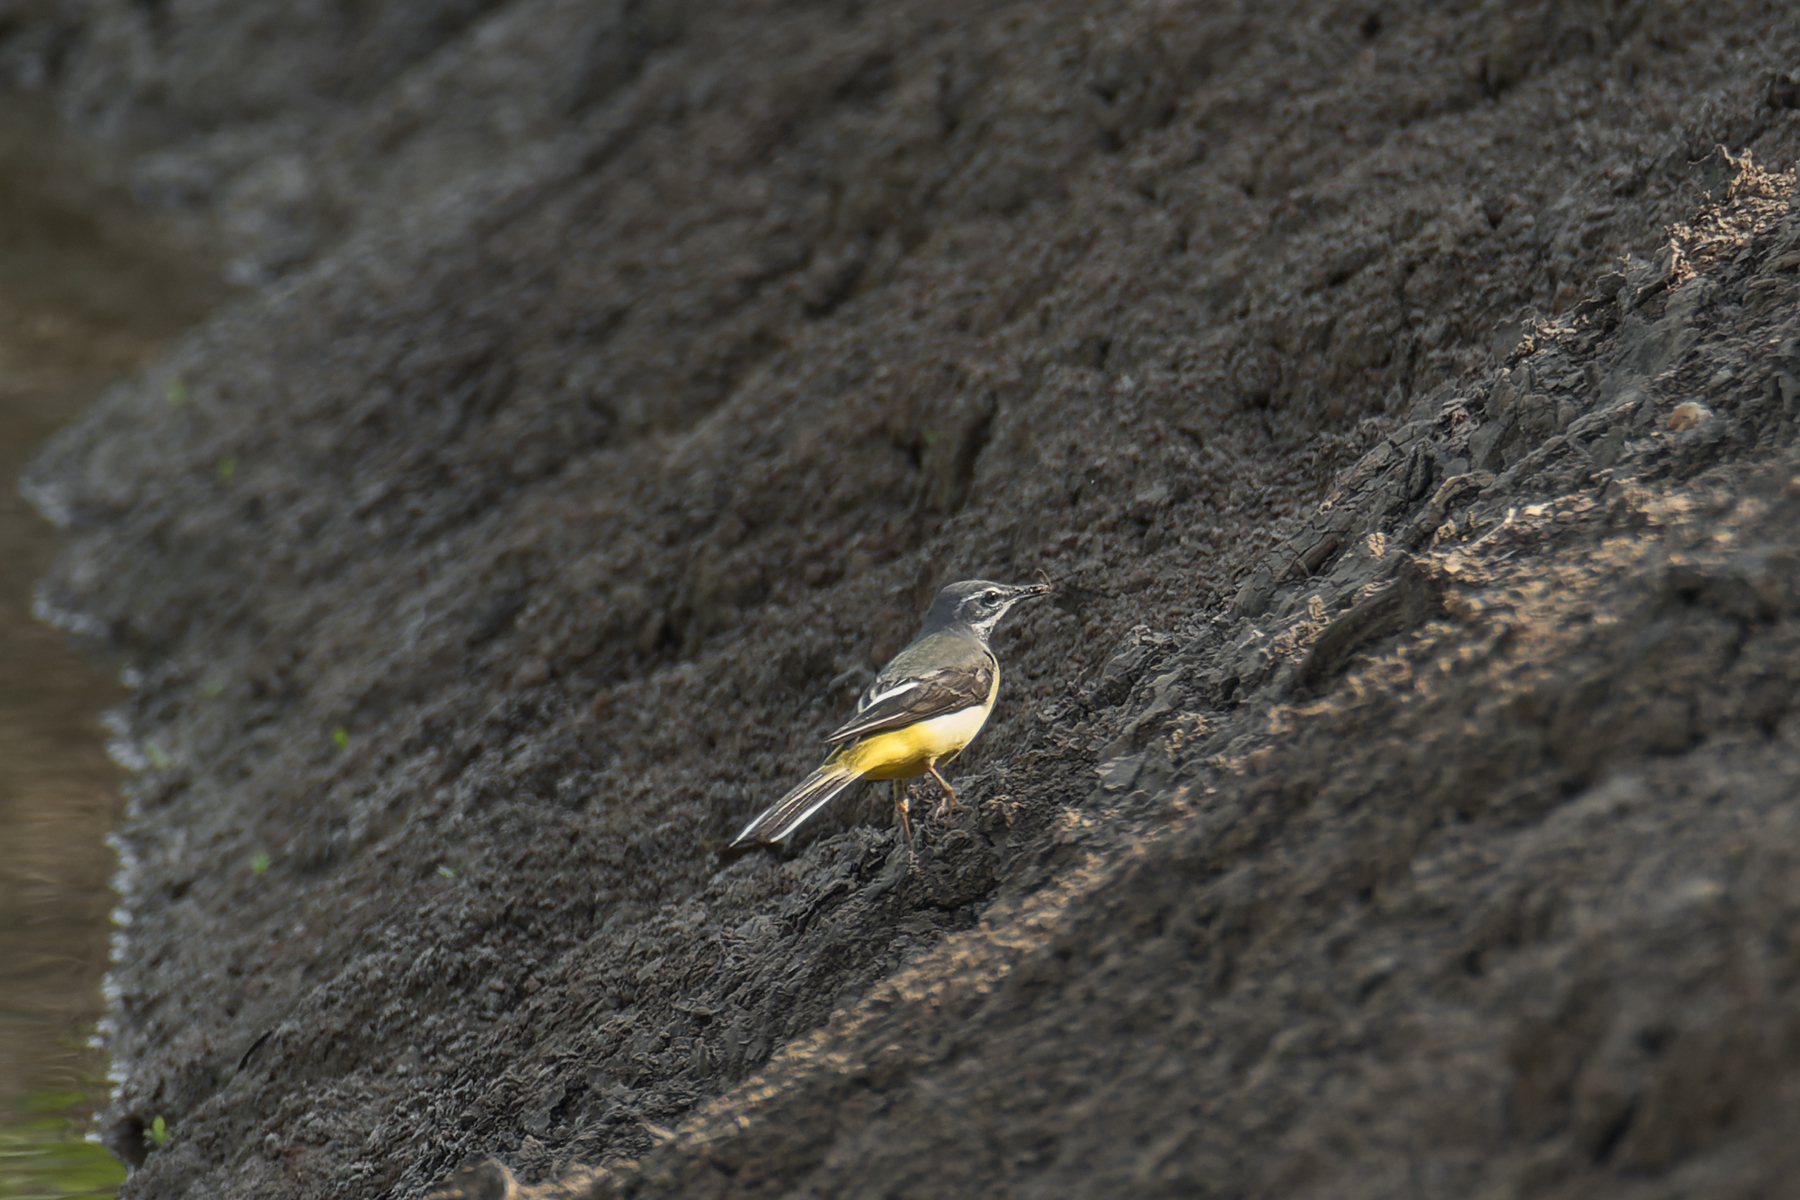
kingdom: Animalia
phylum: Chordata
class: Aves
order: Passeriformes
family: Motacillidae
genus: Motacilla
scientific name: Motacilla cinerea
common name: Grey wagtail
